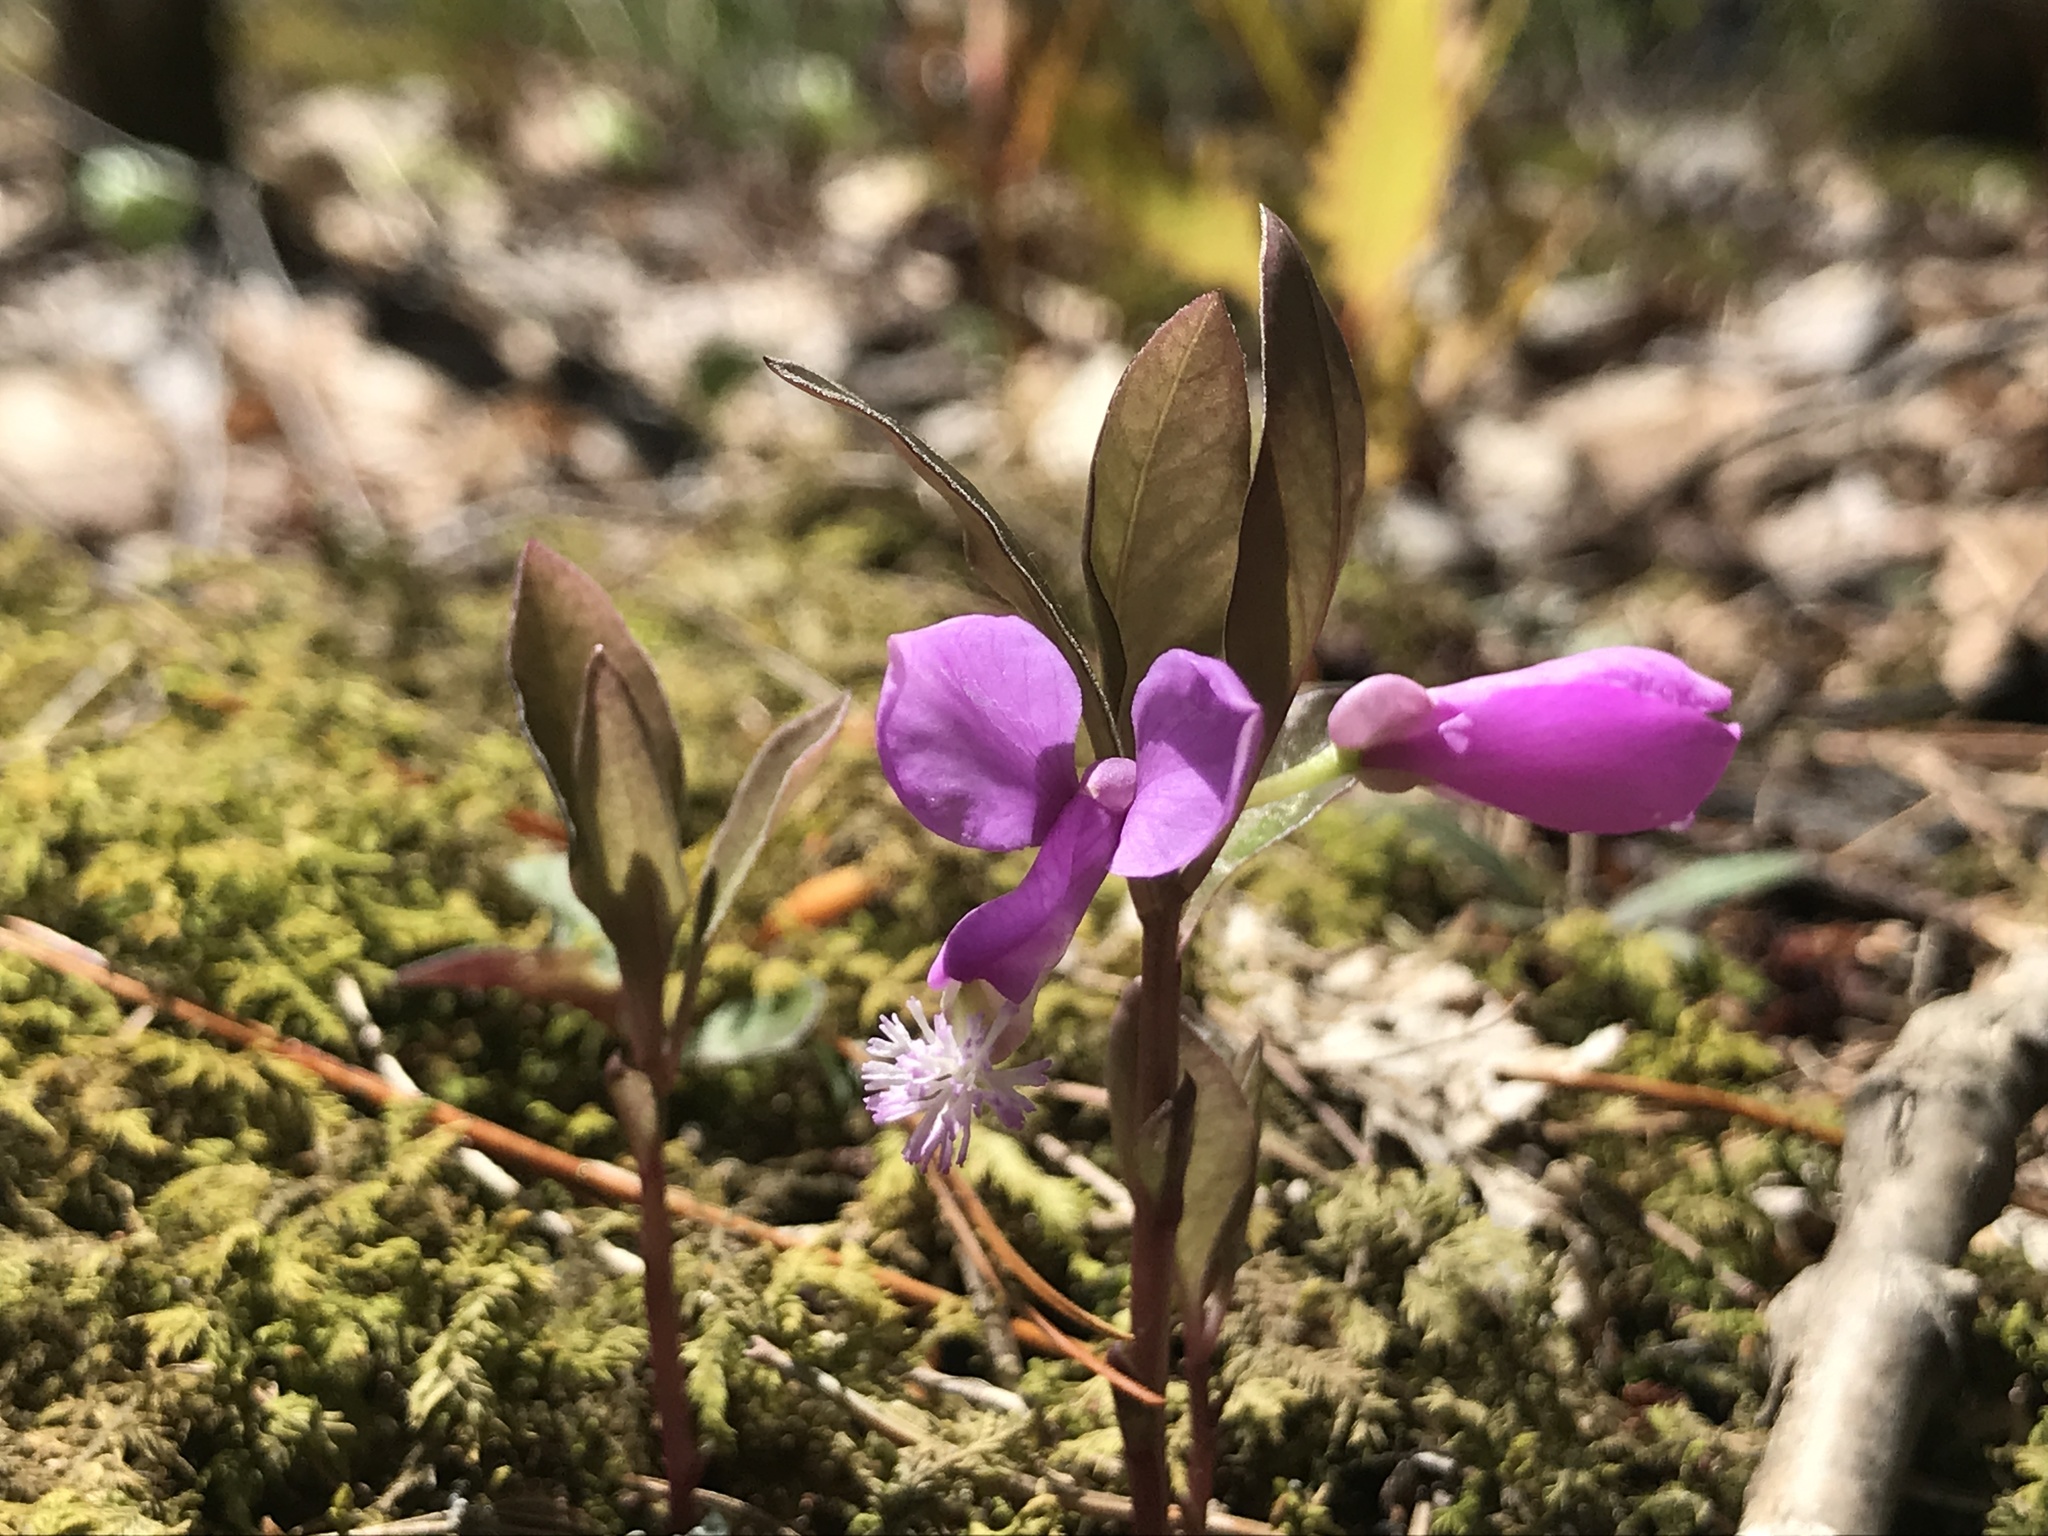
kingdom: Plantae
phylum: Tracheophyta
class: Magnoliopsida
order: Fabales
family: Polygalaceae
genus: Polygaloides
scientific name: Polygaloides paucifolia
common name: Bird-on-the-wing
